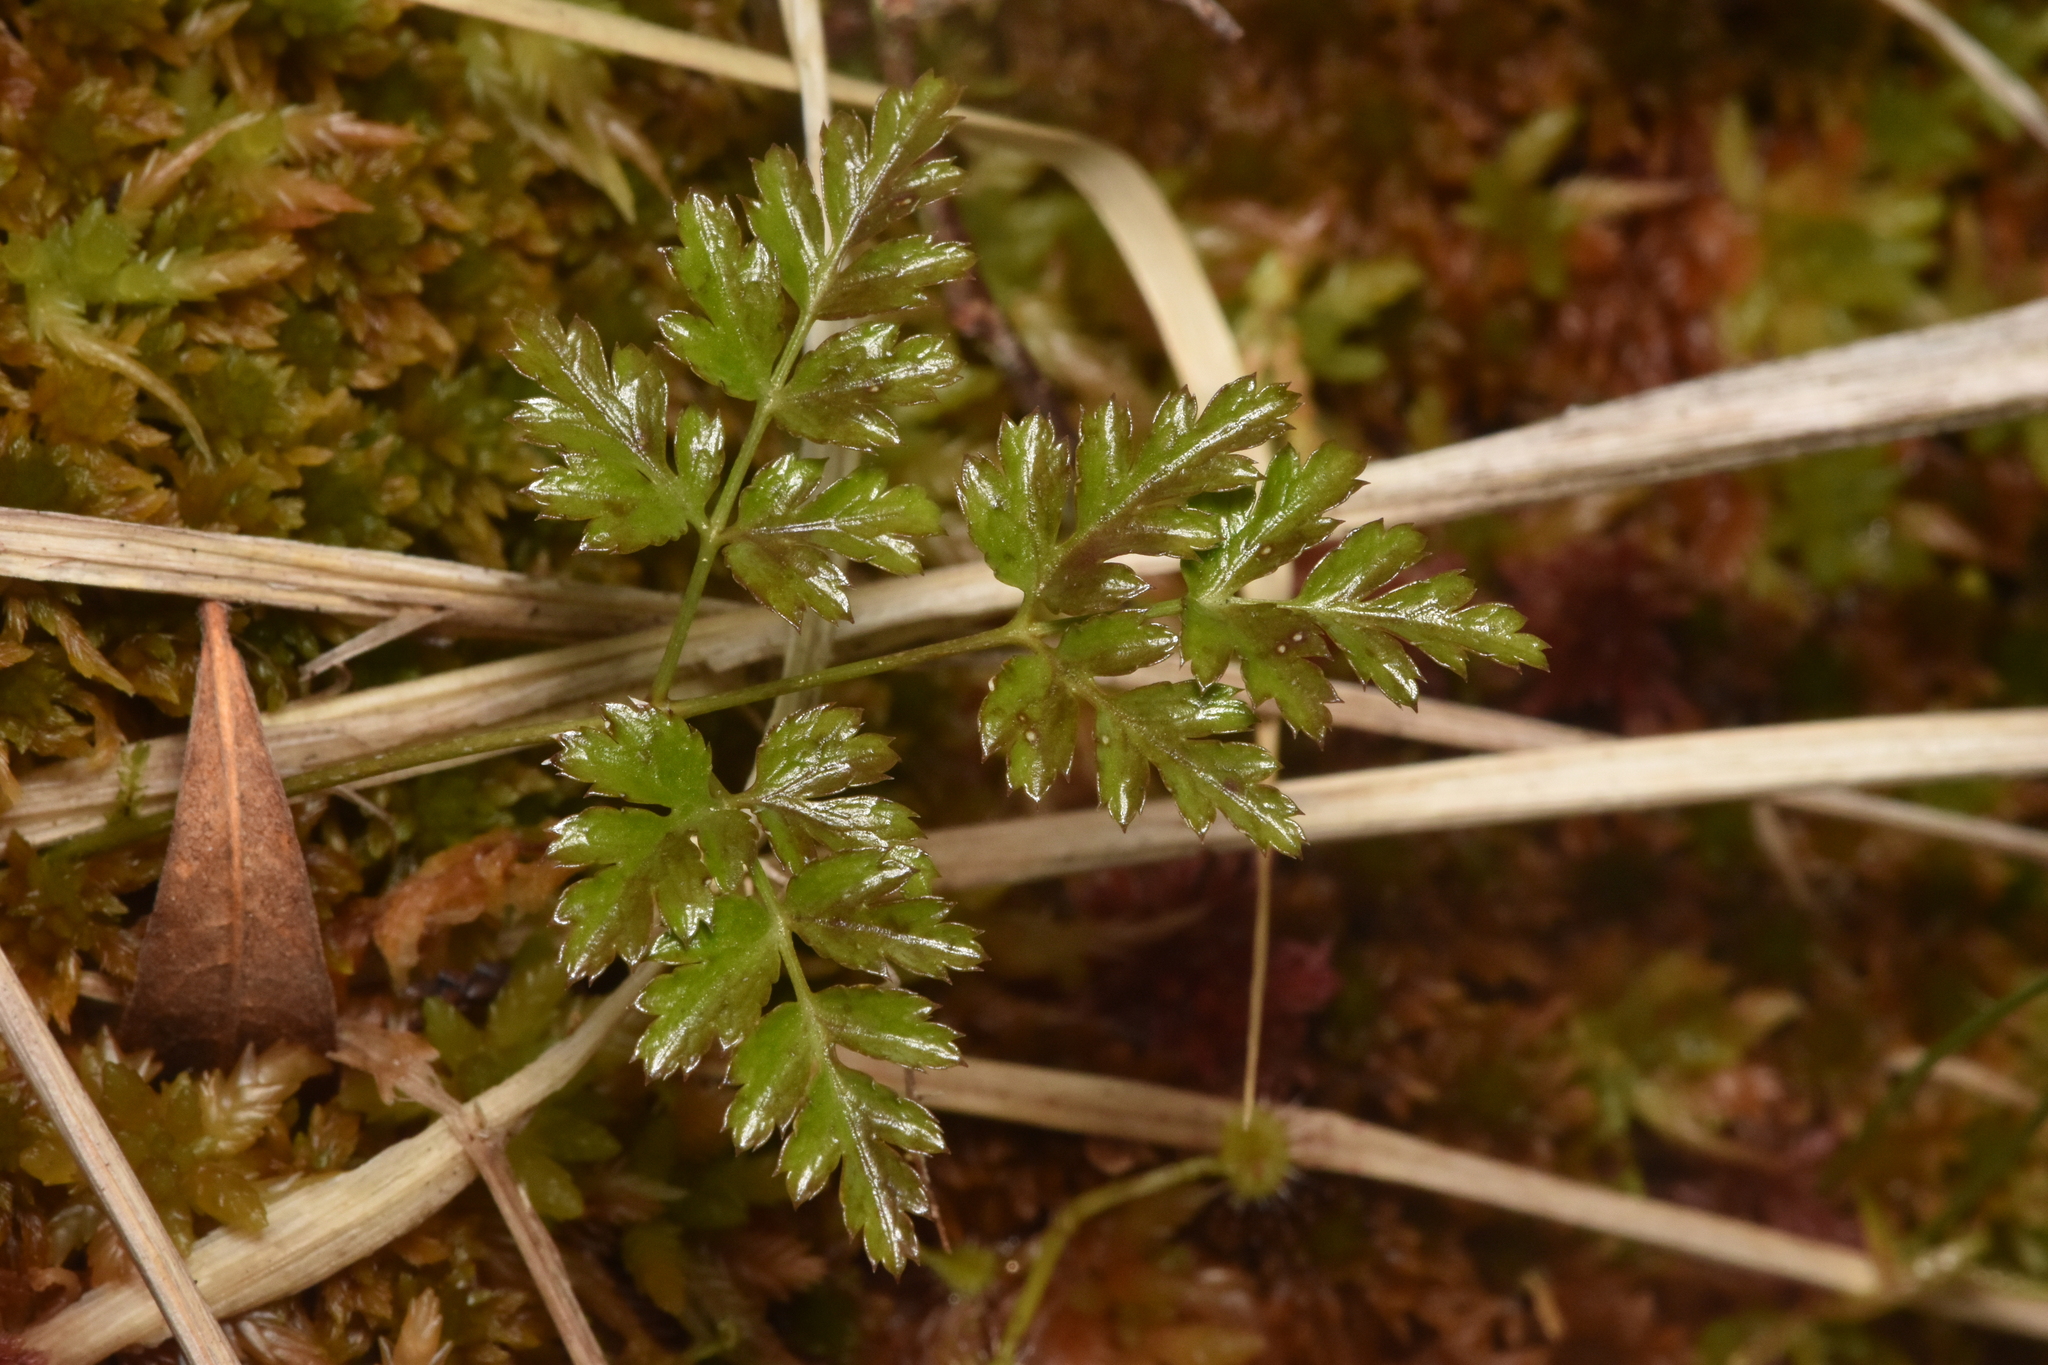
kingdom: Plantae
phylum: Tracheophyta
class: Magnoliopsida
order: Ranunculales
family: Ranunculaceae
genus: Coptis
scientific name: Coptis aspleniifolia
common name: Fern-leaved goldthread
